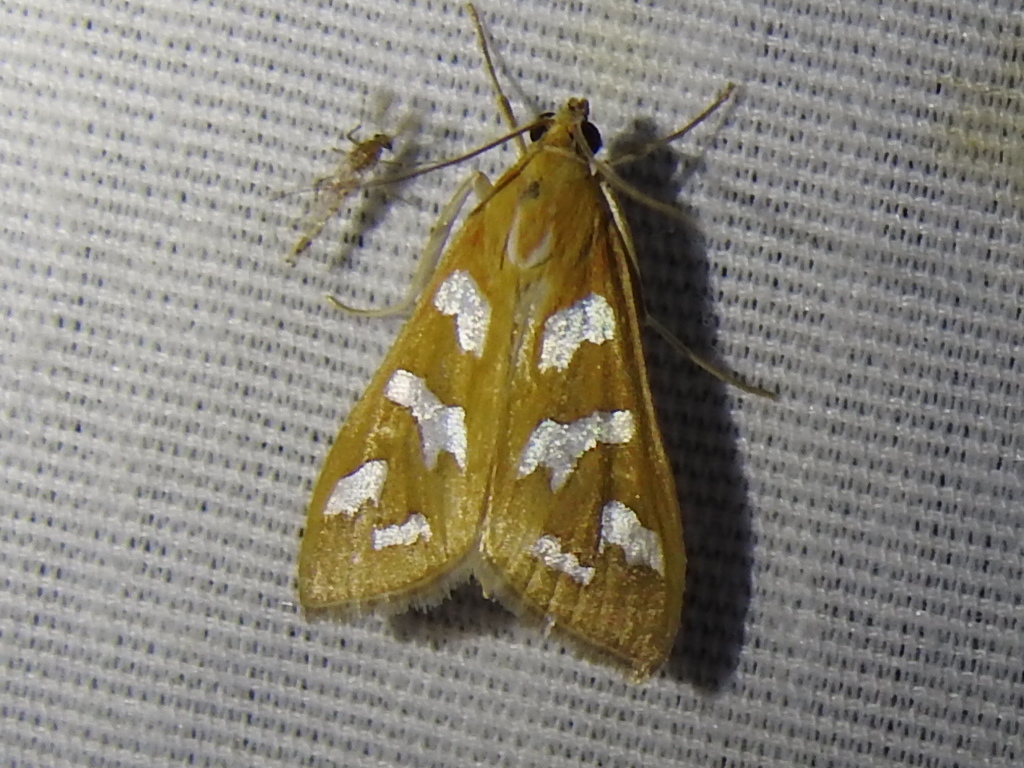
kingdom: Animalia
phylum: Arthropoda
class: Insecta
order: Lepidoptera
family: Crambidae
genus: Diastictis
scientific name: Diastictis fracturalis
